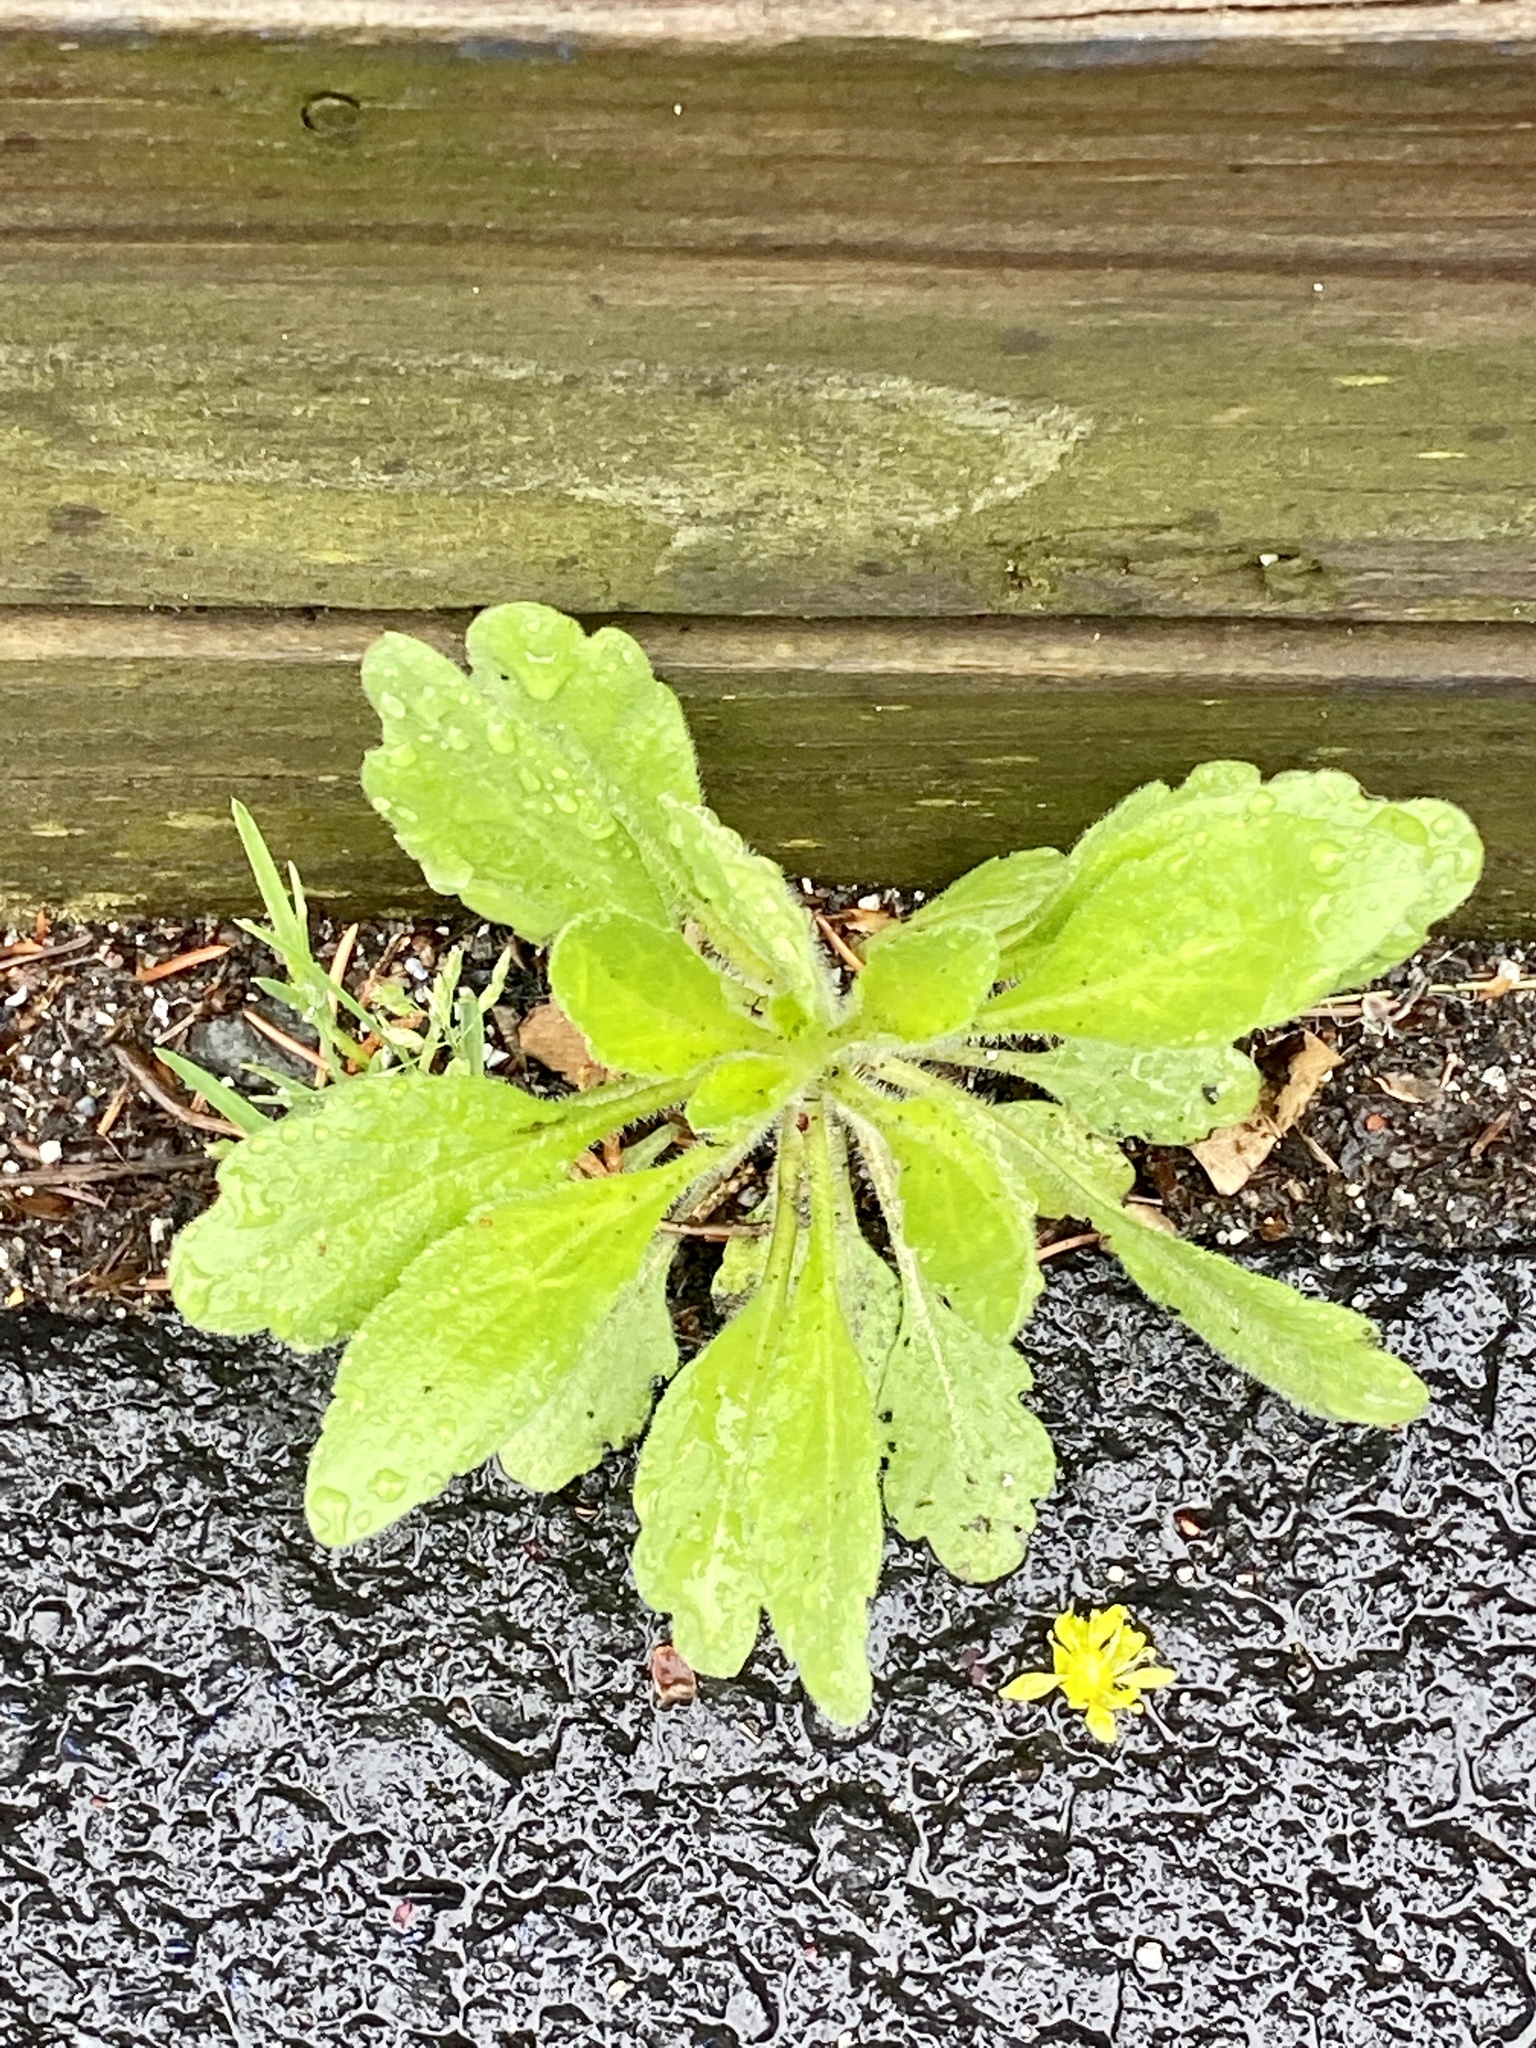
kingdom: Plantae
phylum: Tracheophyta
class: Magnoliopsida
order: Asterales
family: Asteraceae
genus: Erigeron
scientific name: Erigeron canadensis
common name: Canadian fleabane
